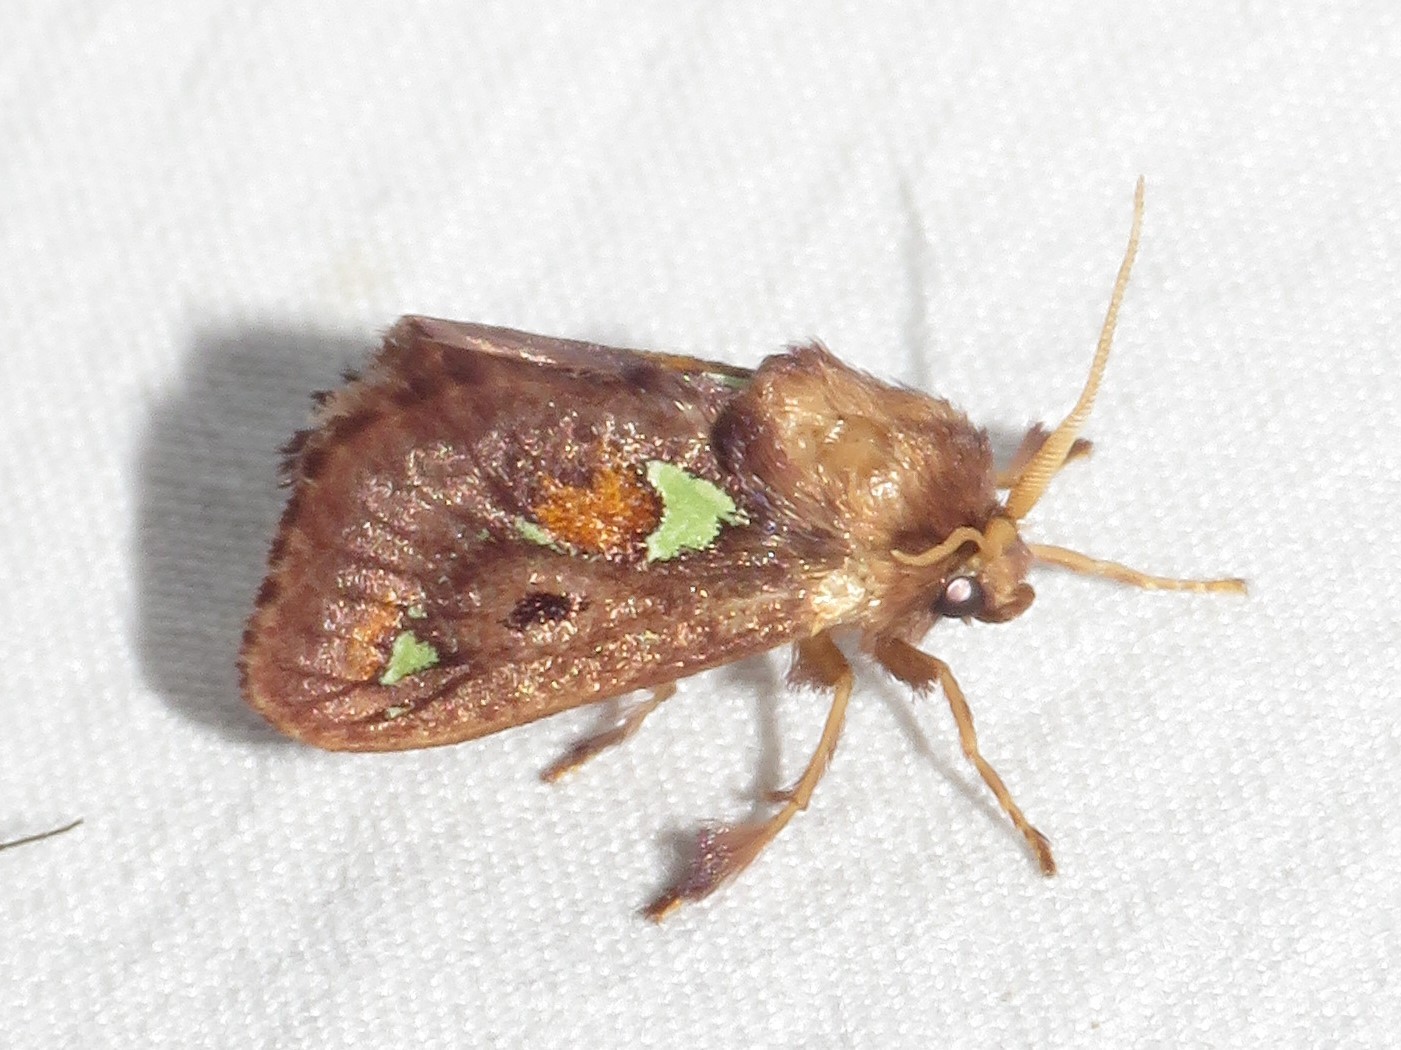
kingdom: Animalia
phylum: Arthropoda
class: Insecta
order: Lepidoptera
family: Limacodidae
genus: Euclea
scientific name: Euclea delphinii
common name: Spiny oak-slug moth
